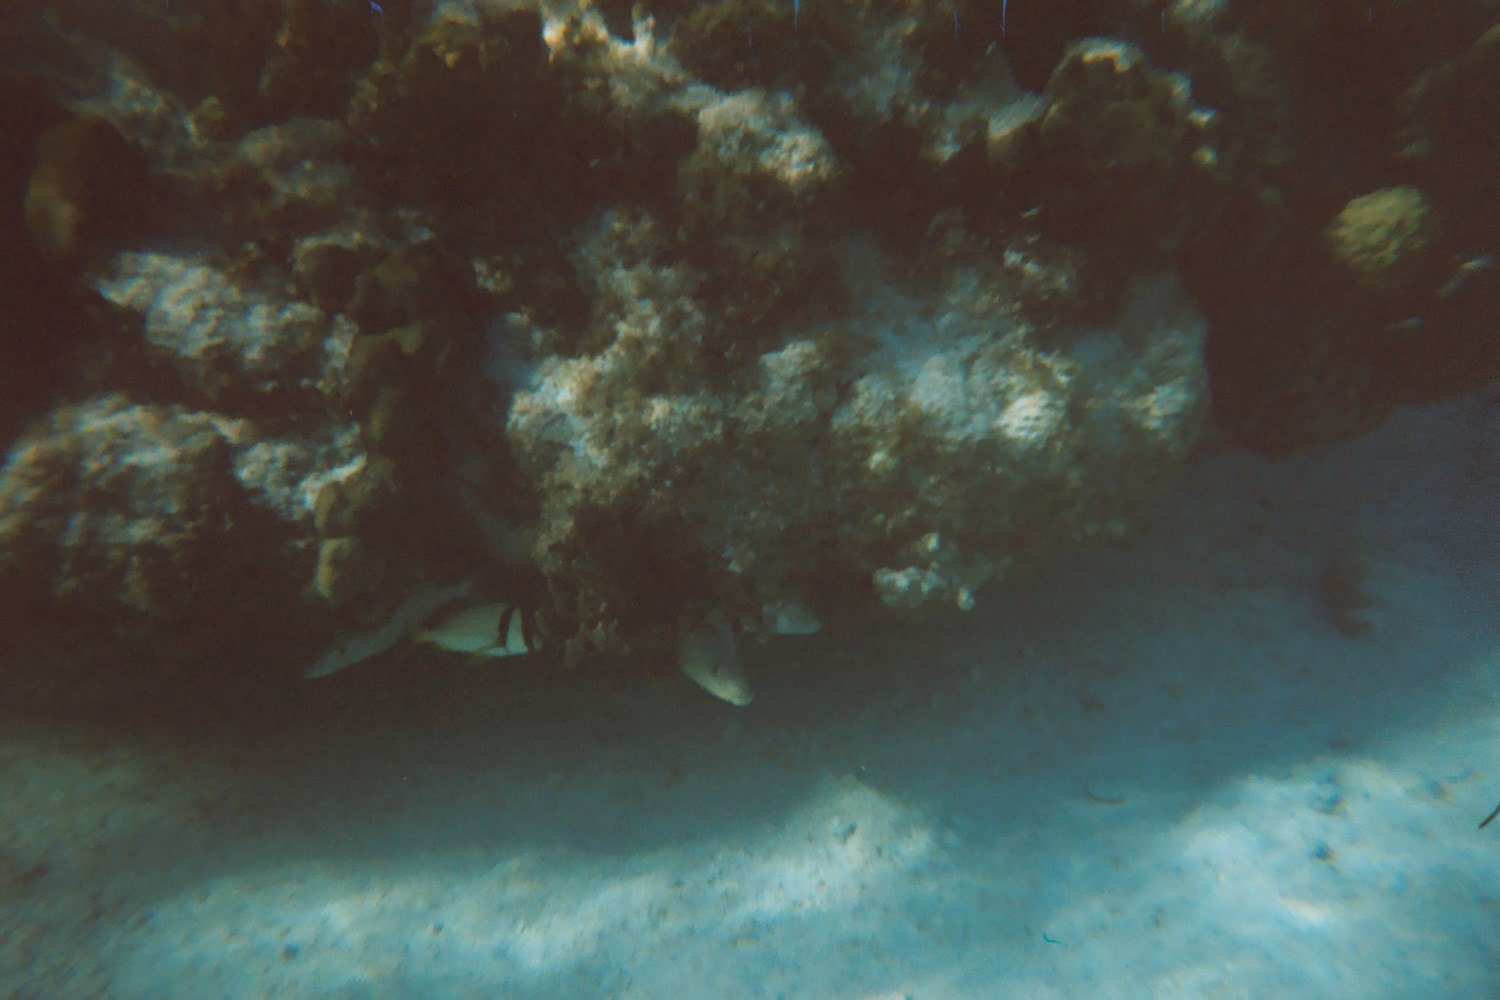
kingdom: Animalia
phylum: Chordata
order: Perciformes
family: Haemulidae
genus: Anisotremus
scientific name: Anisotremus virginicus
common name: Porkfish
